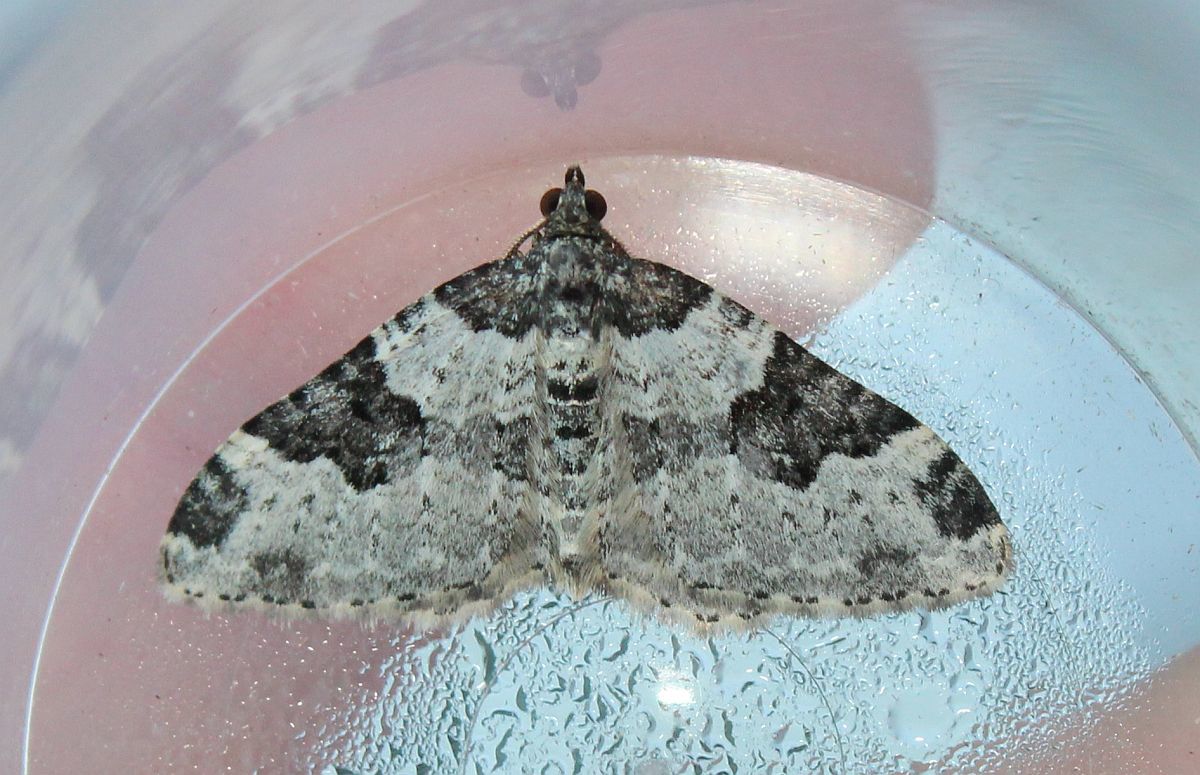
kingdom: Animalia
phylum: Arthropoda
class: Insecta
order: Lepidoptera
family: Geometridae
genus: Xanthorhoe
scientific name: Xanthorhoe fluctuata
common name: Garden carpet
